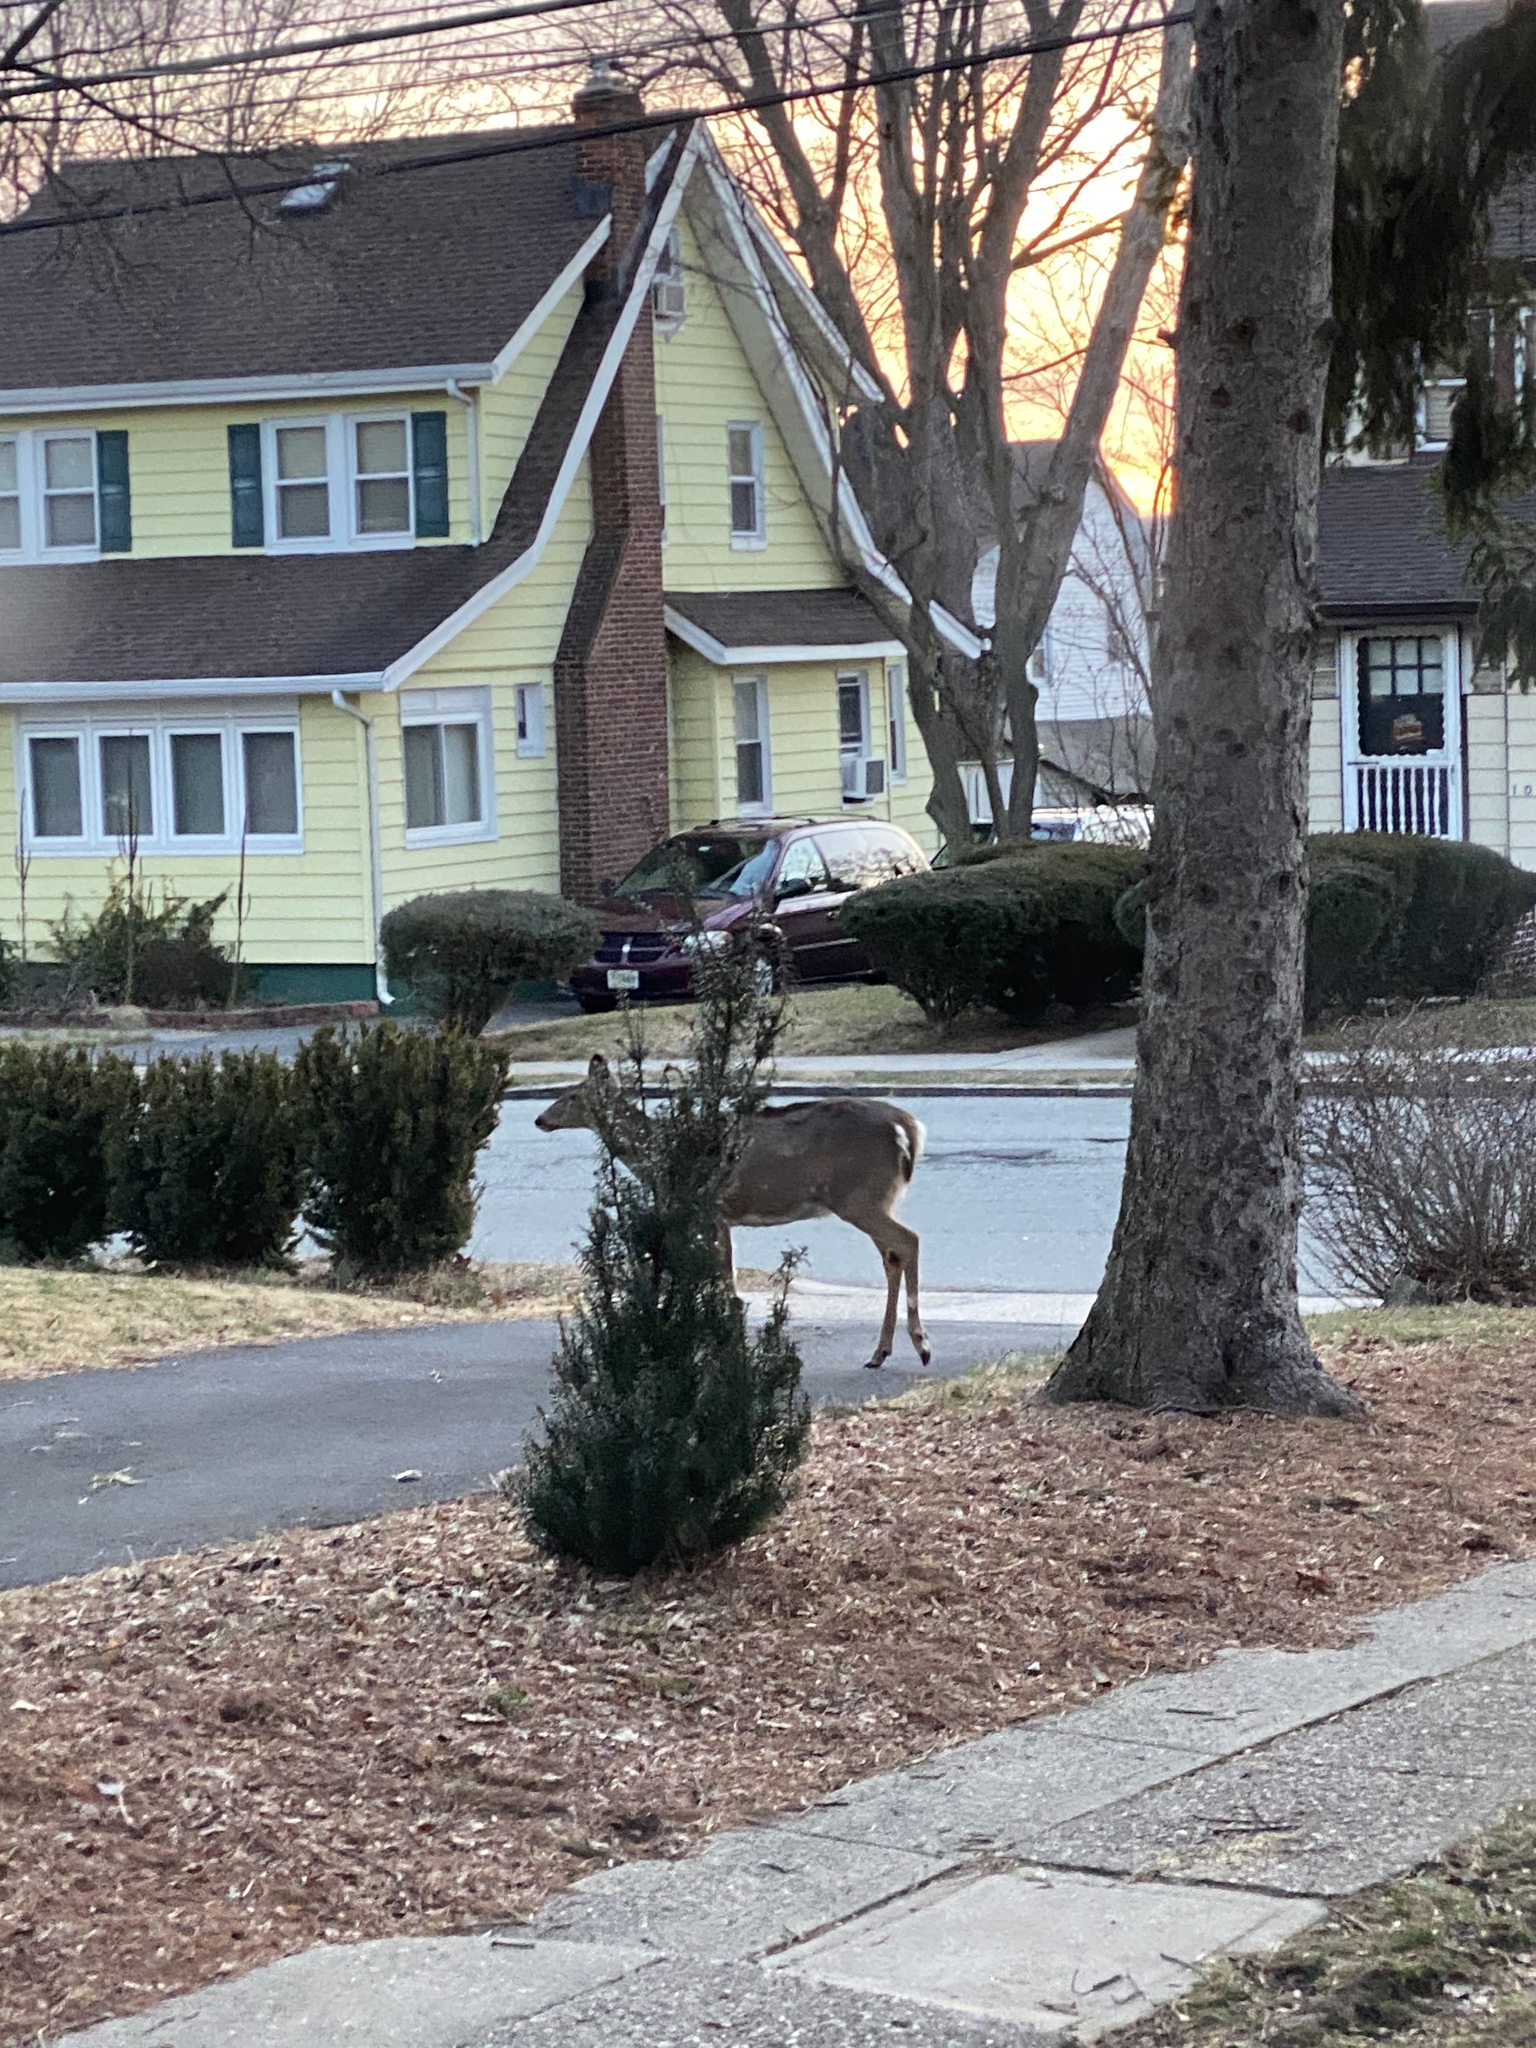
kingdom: Animalia
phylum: Chordata
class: Mammalia
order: Artiodactyla
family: Cervidae
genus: Odocoileus
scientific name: Odocoileus virginianus
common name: White-tailed deer
